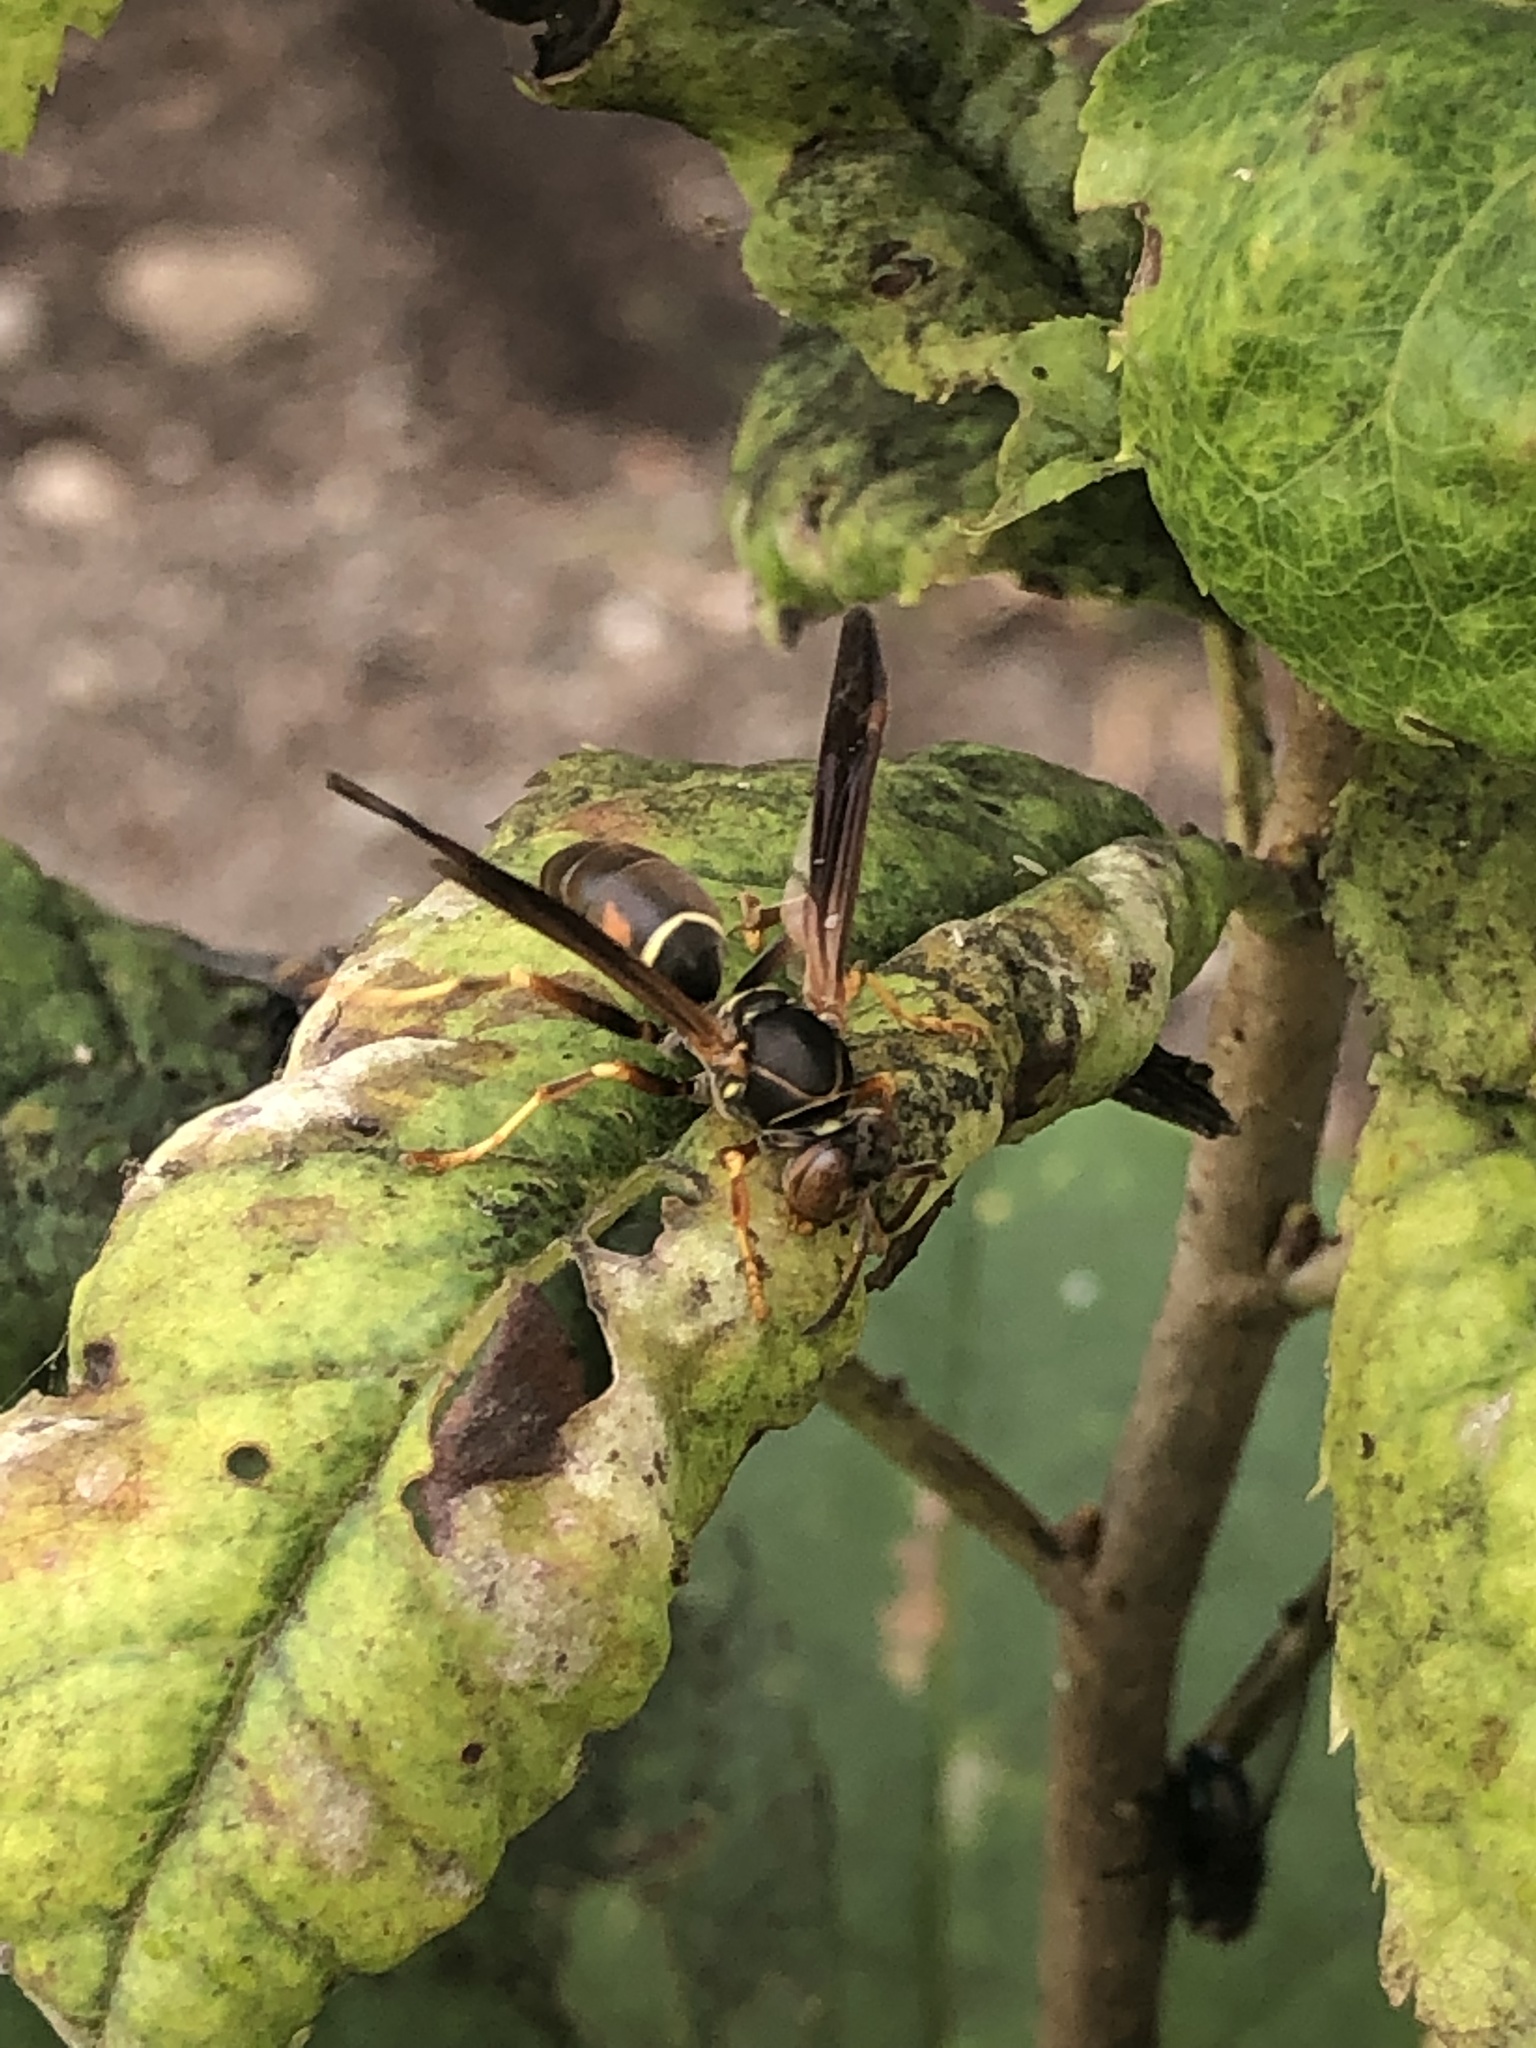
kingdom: Animalia
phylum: Arthropoda
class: Insecta
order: Hymenoptera
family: Eumenidae
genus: Polistes
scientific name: Polistes fuscatus
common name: Dark paper wasp
